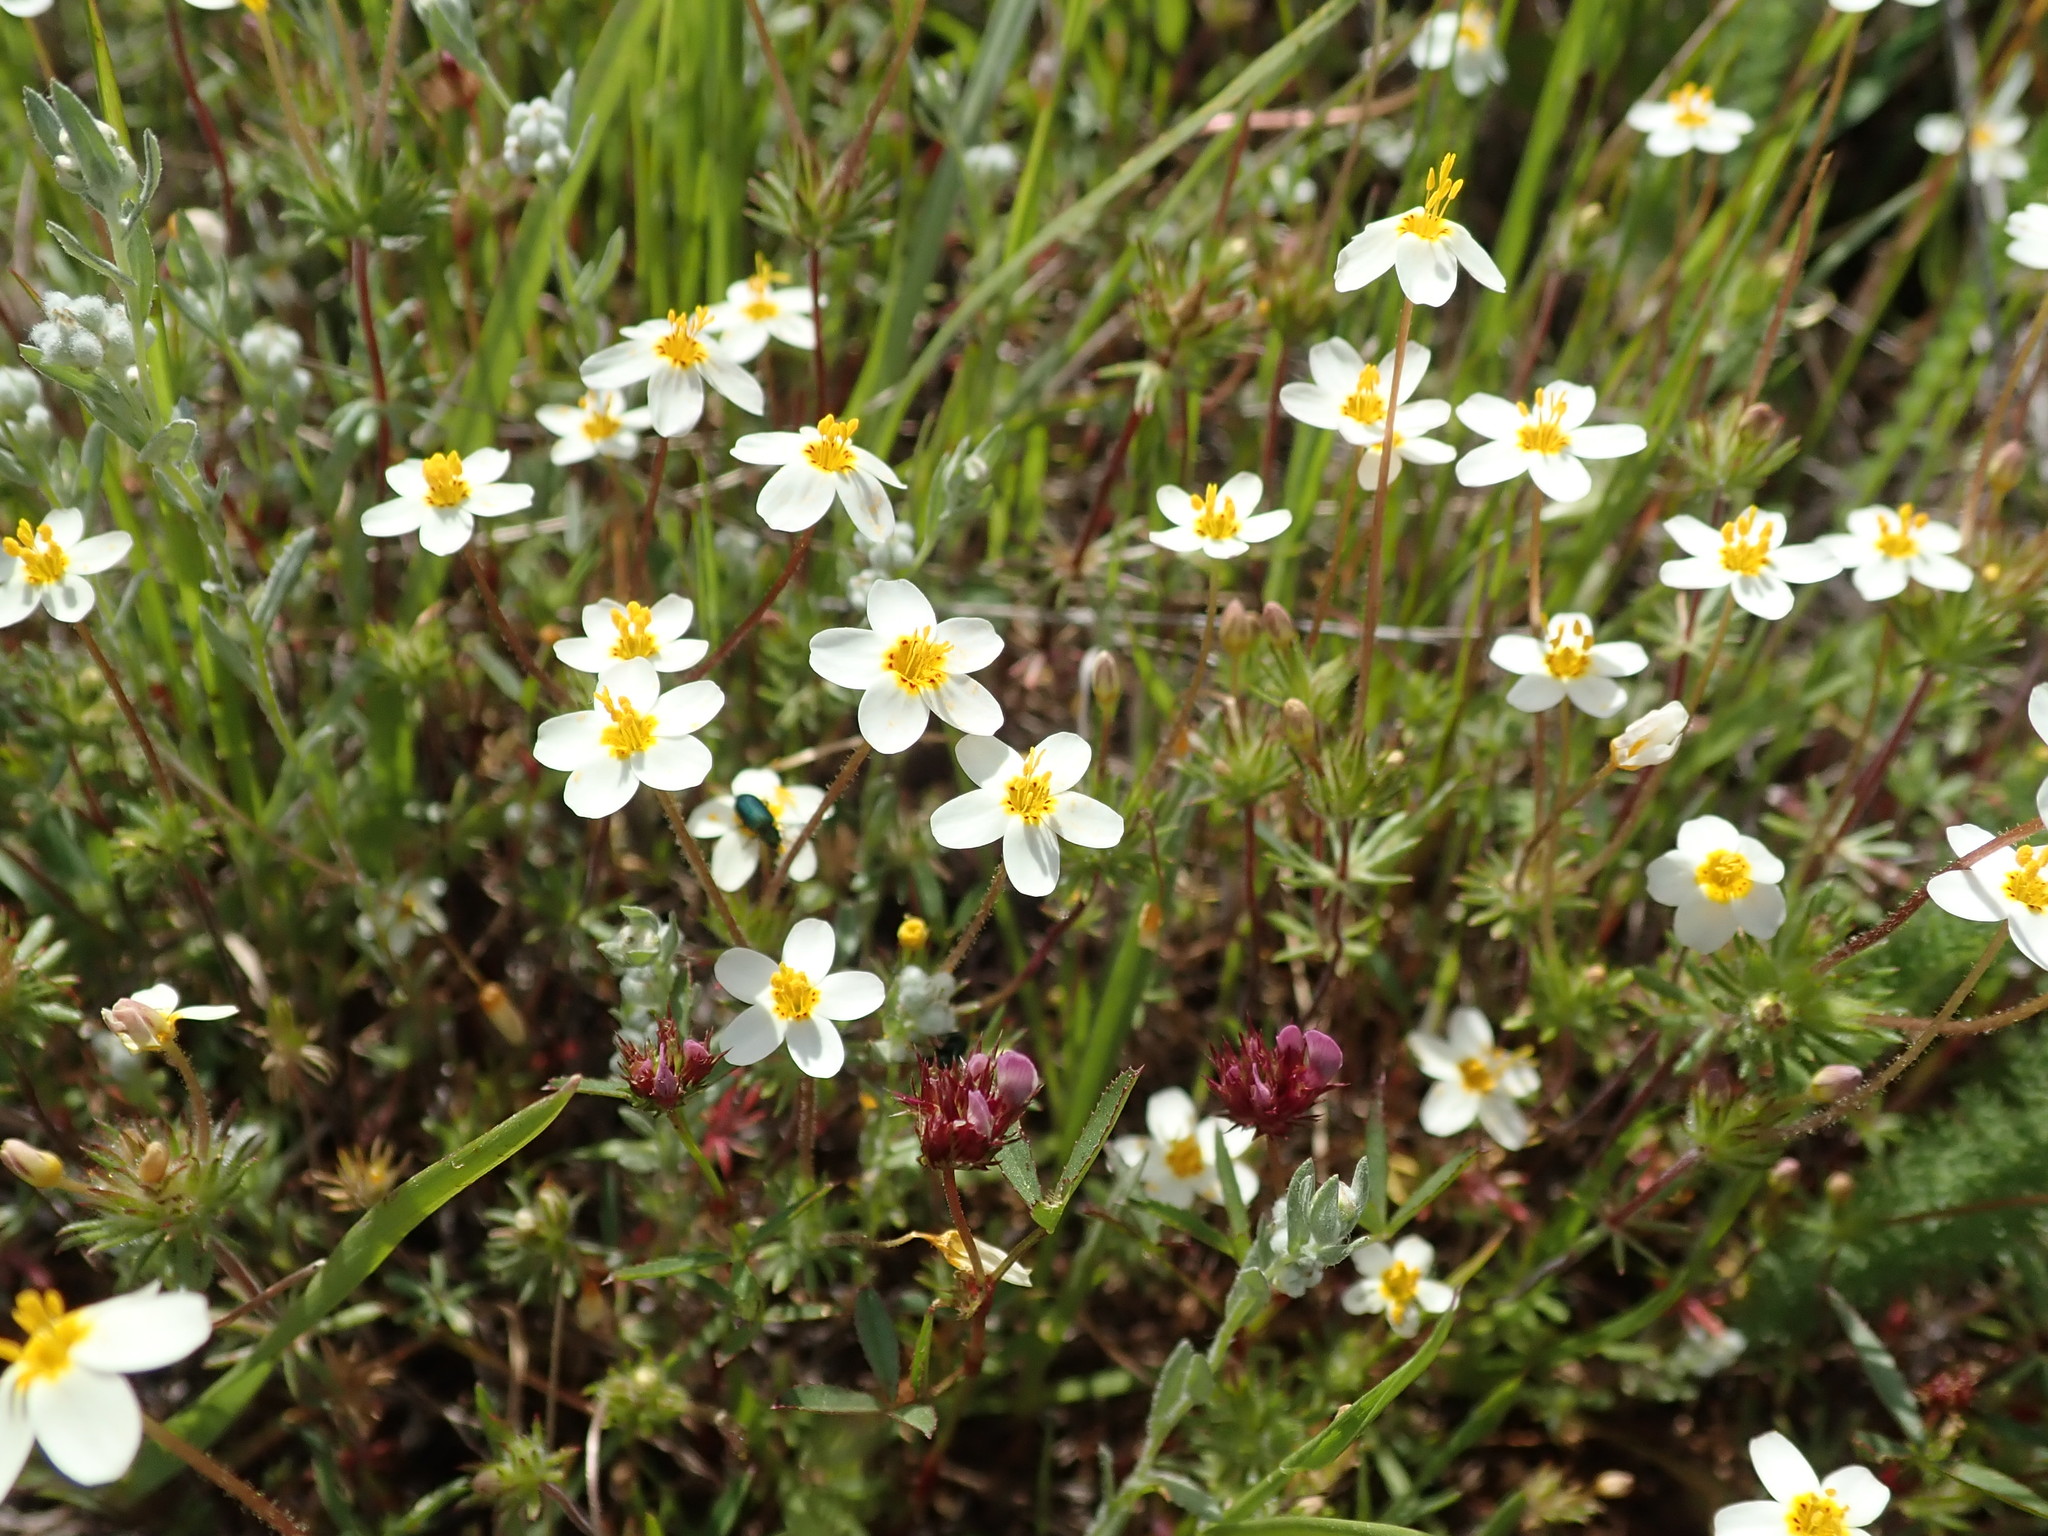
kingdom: Plantae
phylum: Tracheophyta
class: Magnoliopsida
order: Ericales
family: Polemoniaceae
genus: Leptosiphon
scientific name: Leptosiphon parviflorus
